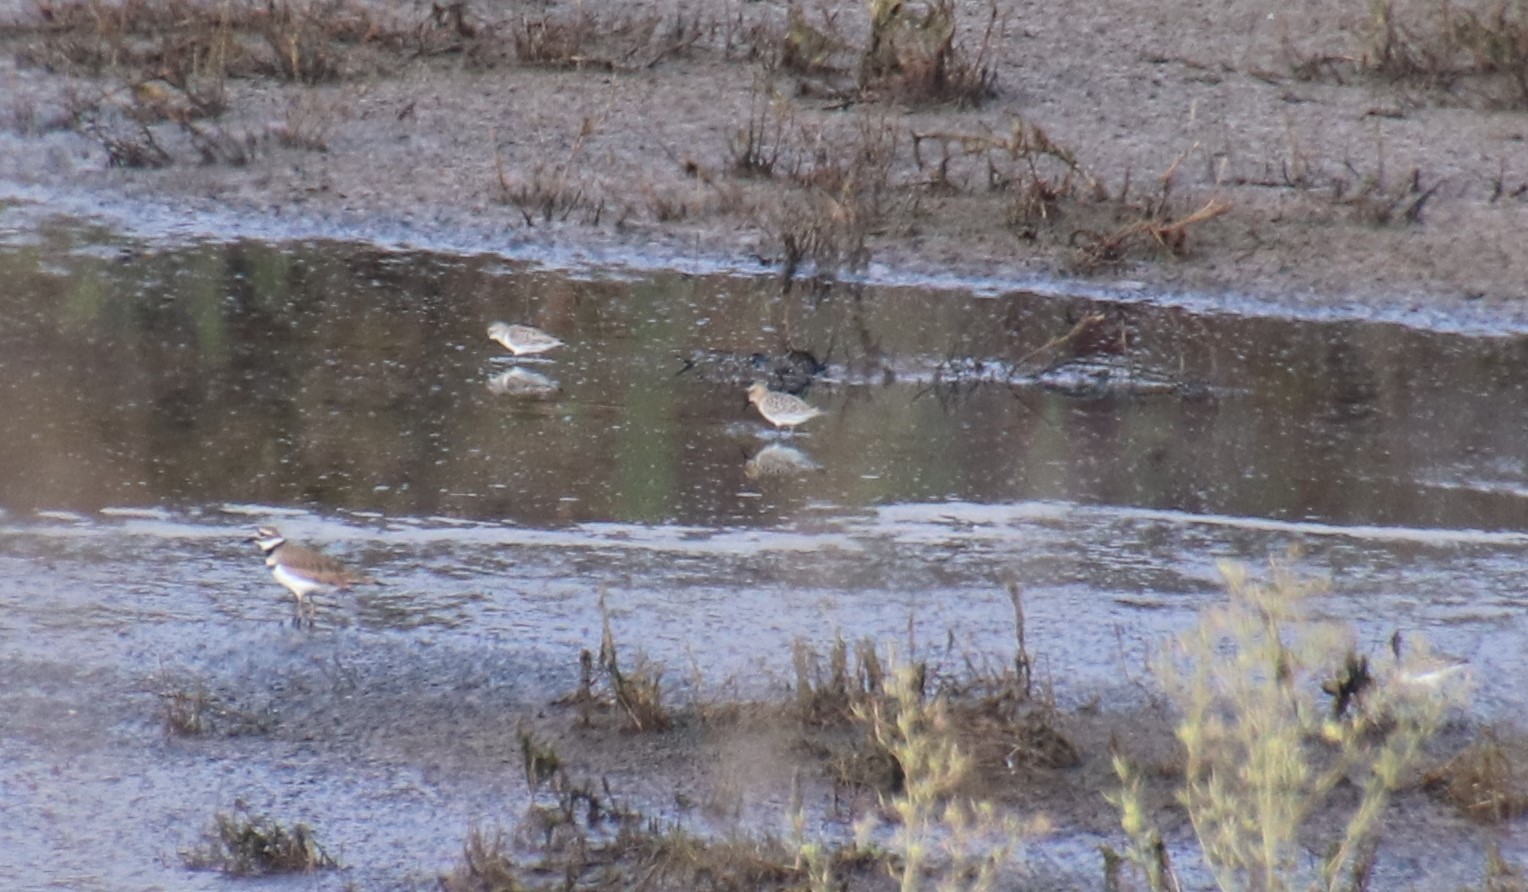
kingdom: Animalia
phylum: Chordata
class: Aves
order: Charadriiformes
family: Scolopacidae
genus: Calidris
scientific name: Calidris bairdii
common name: Baird's sandpiper
